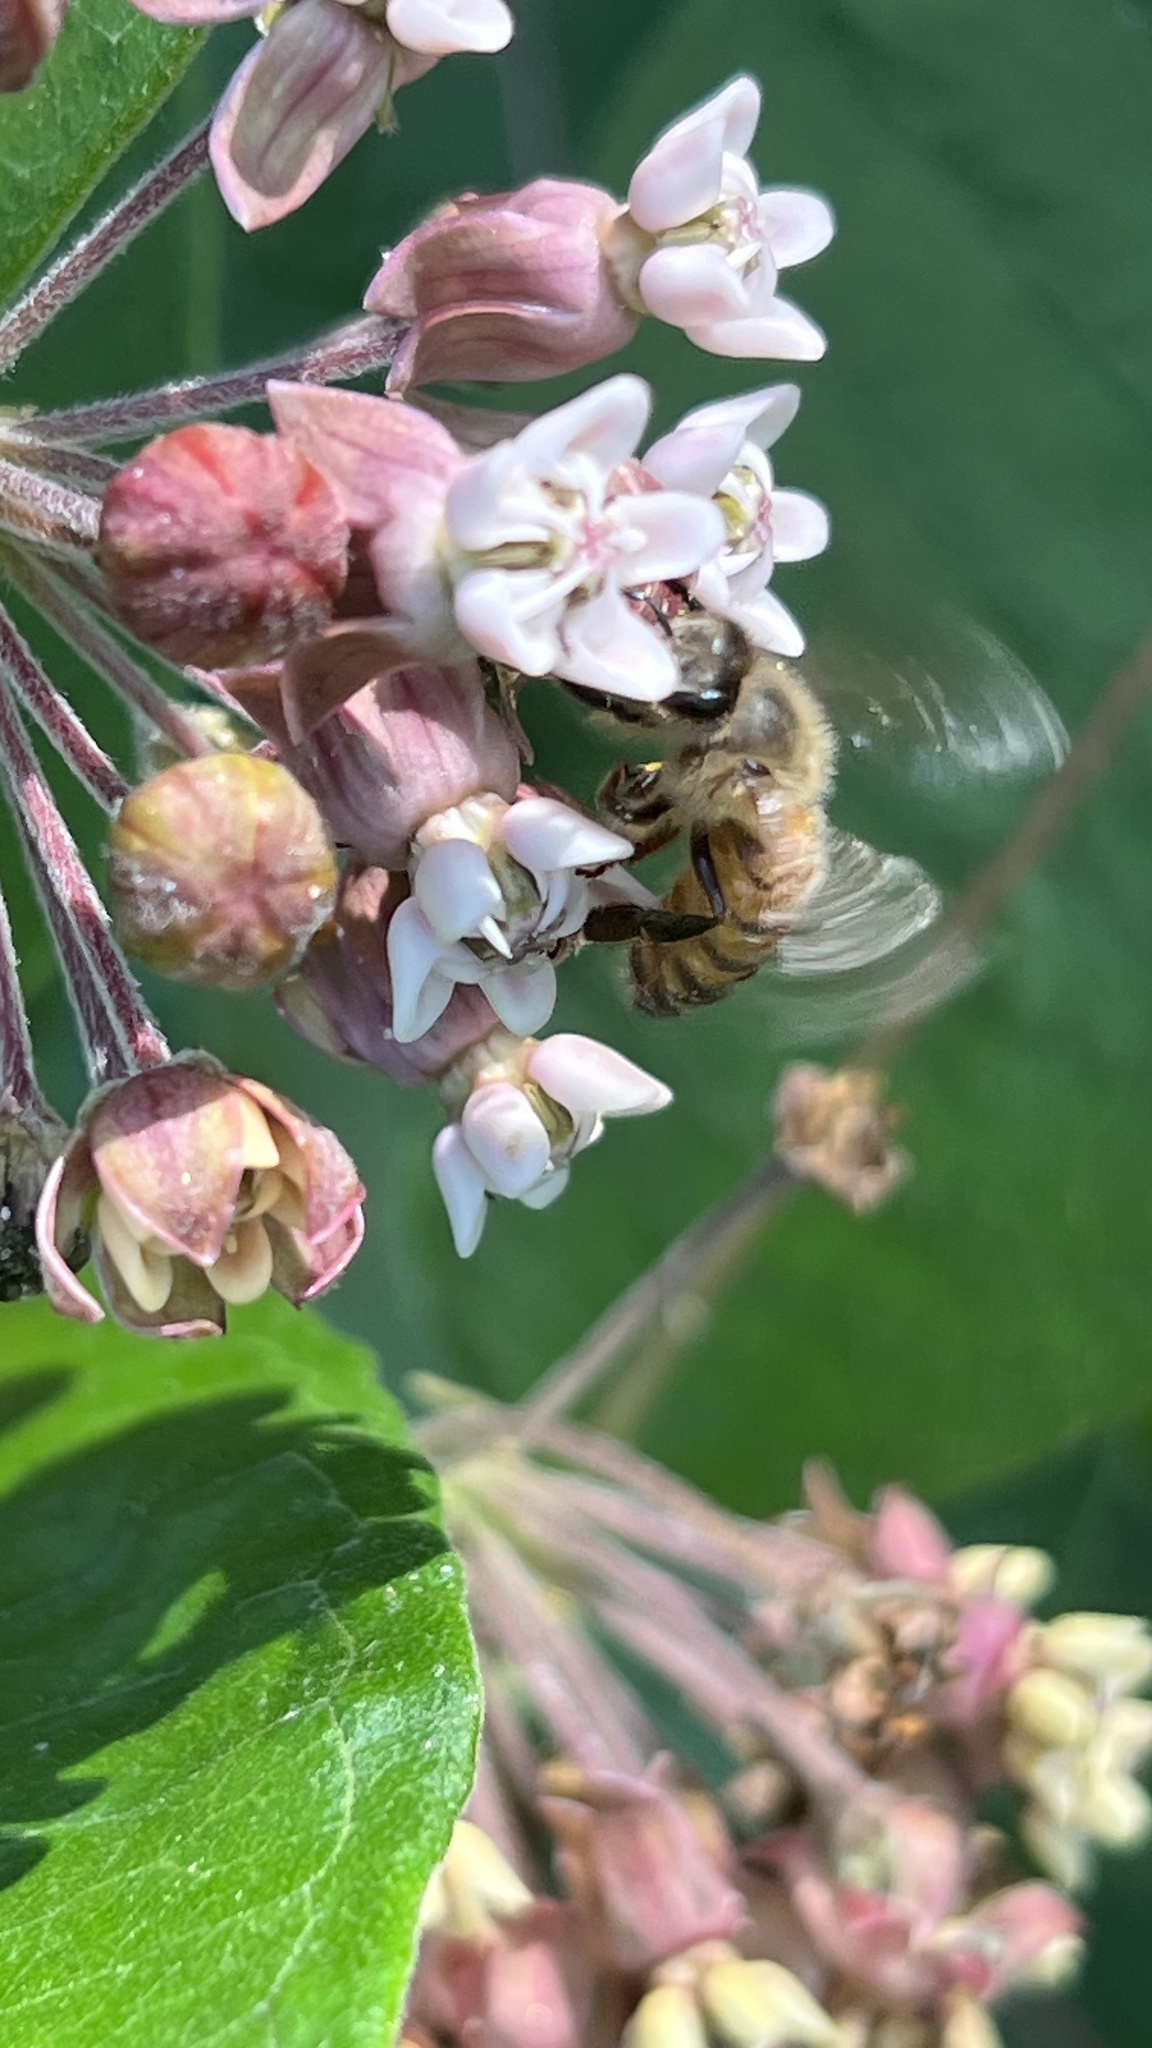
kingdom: Animalia
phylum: Arthropoda
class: Insecta
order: Hymenoptera
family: Apidae
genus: Apis
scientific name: Apis mellifera
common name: Honey bee
